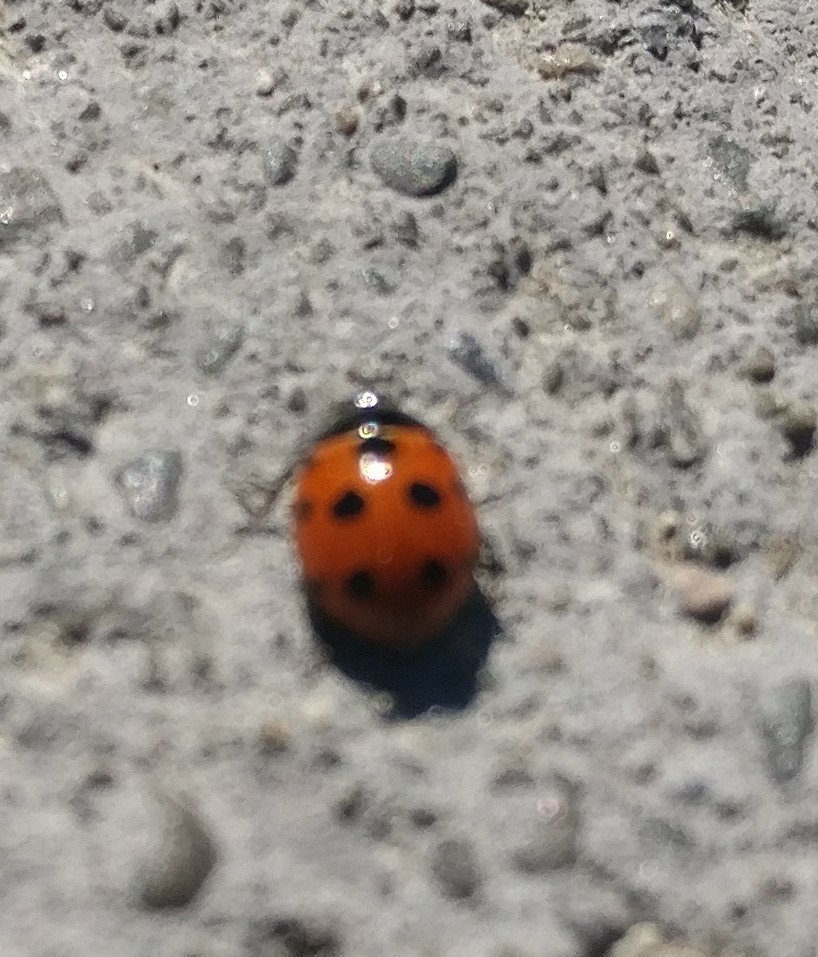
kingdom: Animalia
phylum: Arthropoda
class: Insecta
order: Coleoptera
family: Coccinellidae
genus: Coccinella
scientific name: Coccinella undecimpunctata
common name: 11-spot ladybird
